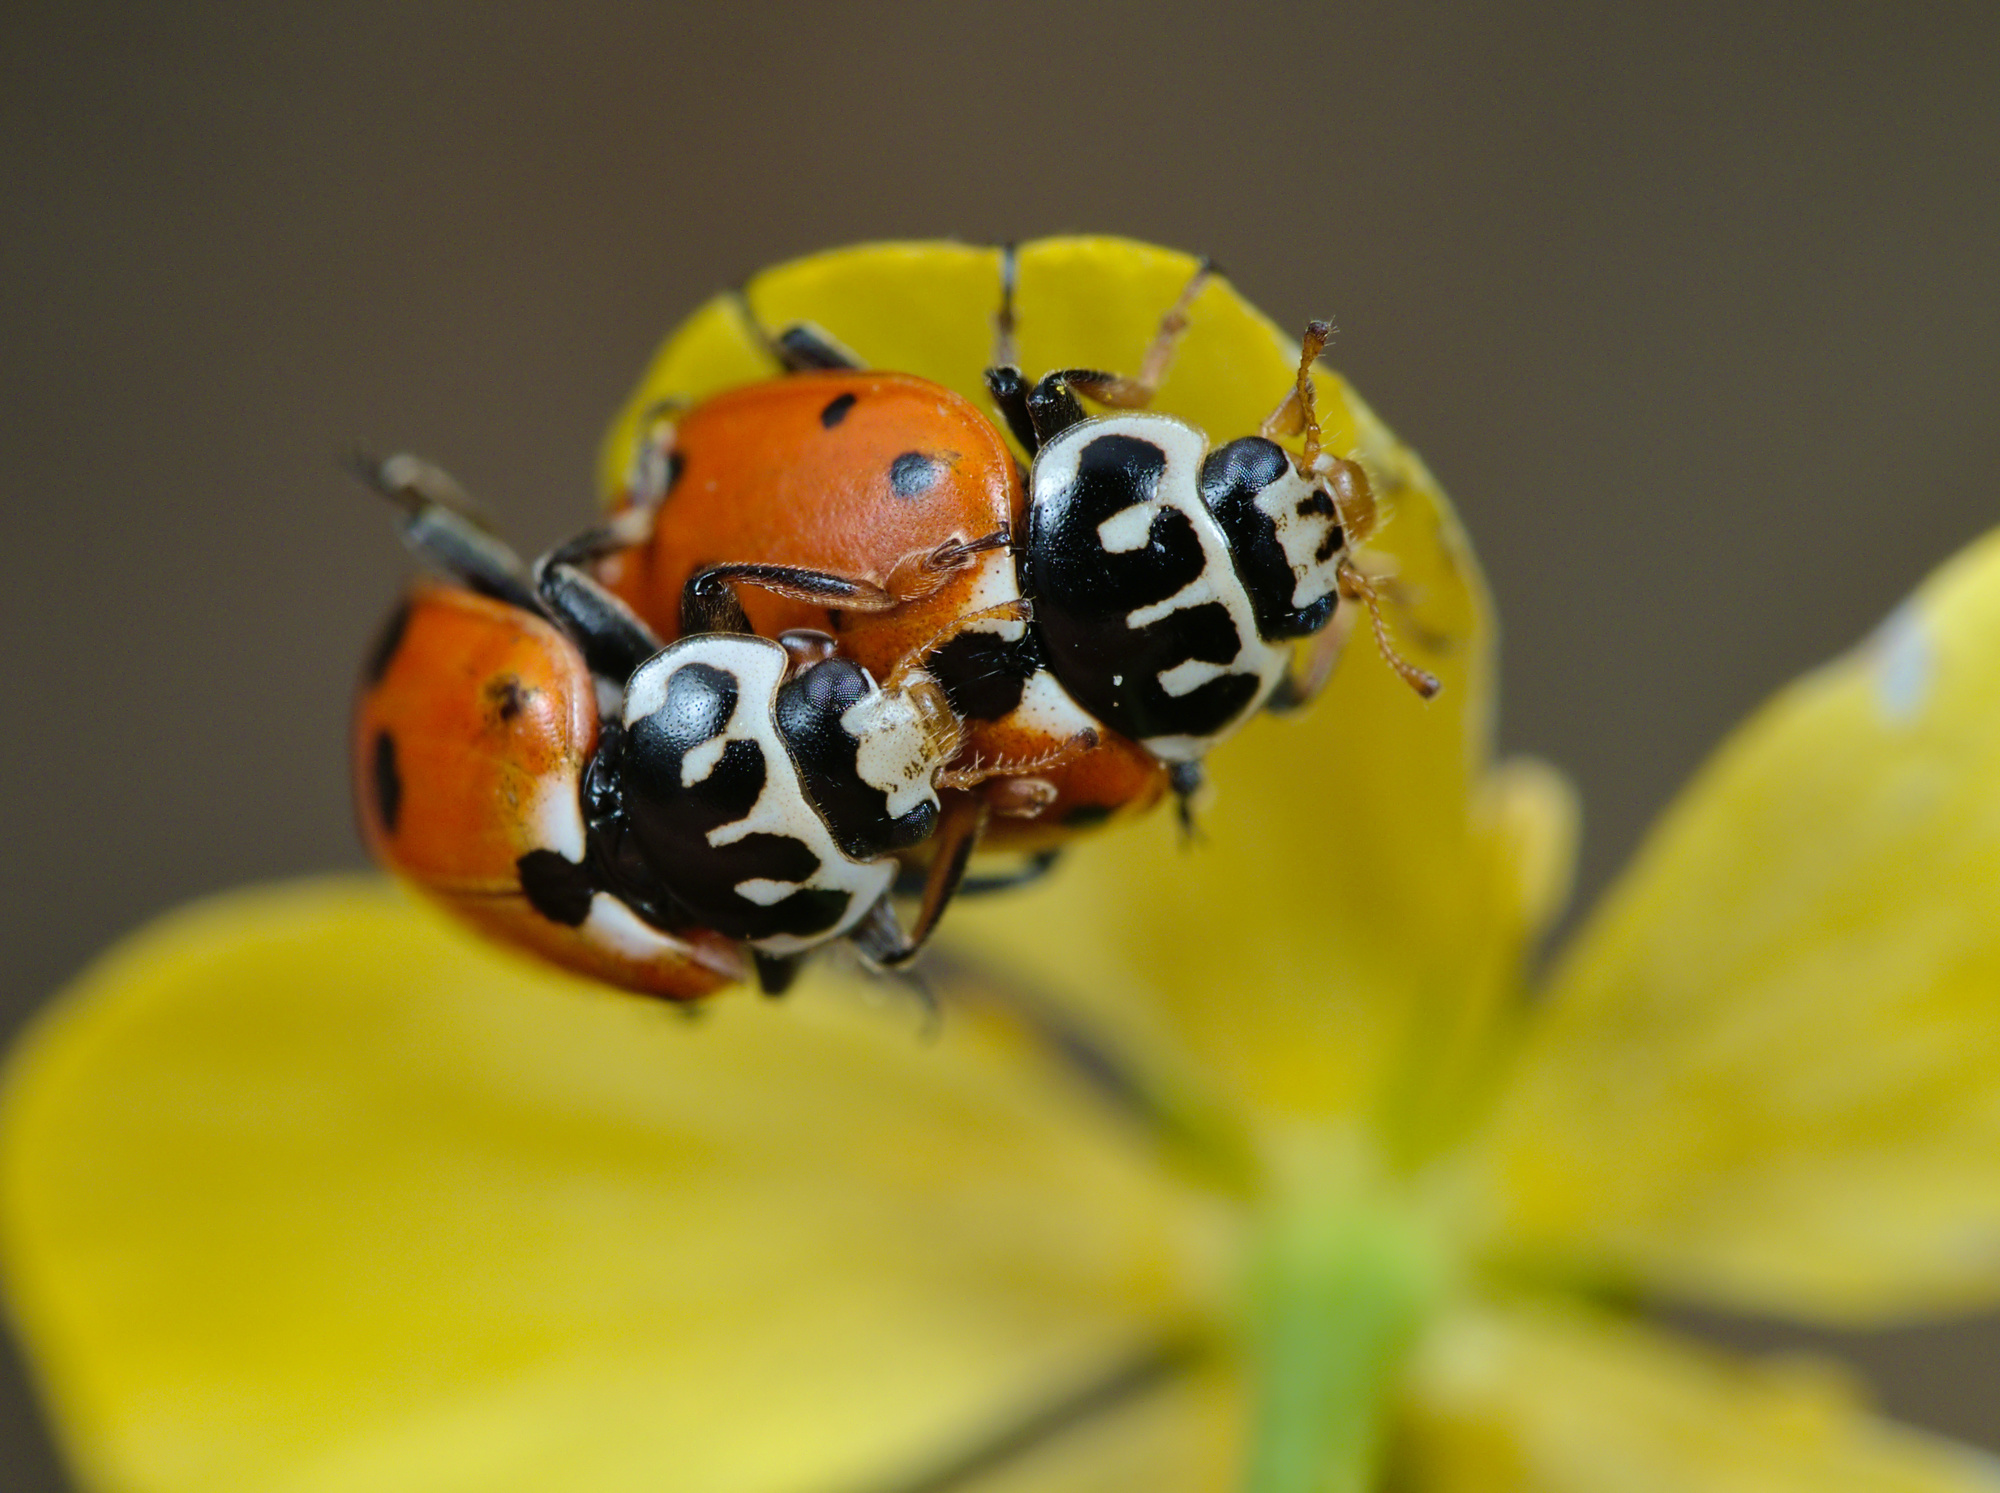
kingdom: Animalia
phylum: Arthropoda
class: Insecta
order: Coleoptera
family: Coccinellidae
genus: Hippodamia
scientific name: Hippodamia variegata
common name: Ladybird beetle
